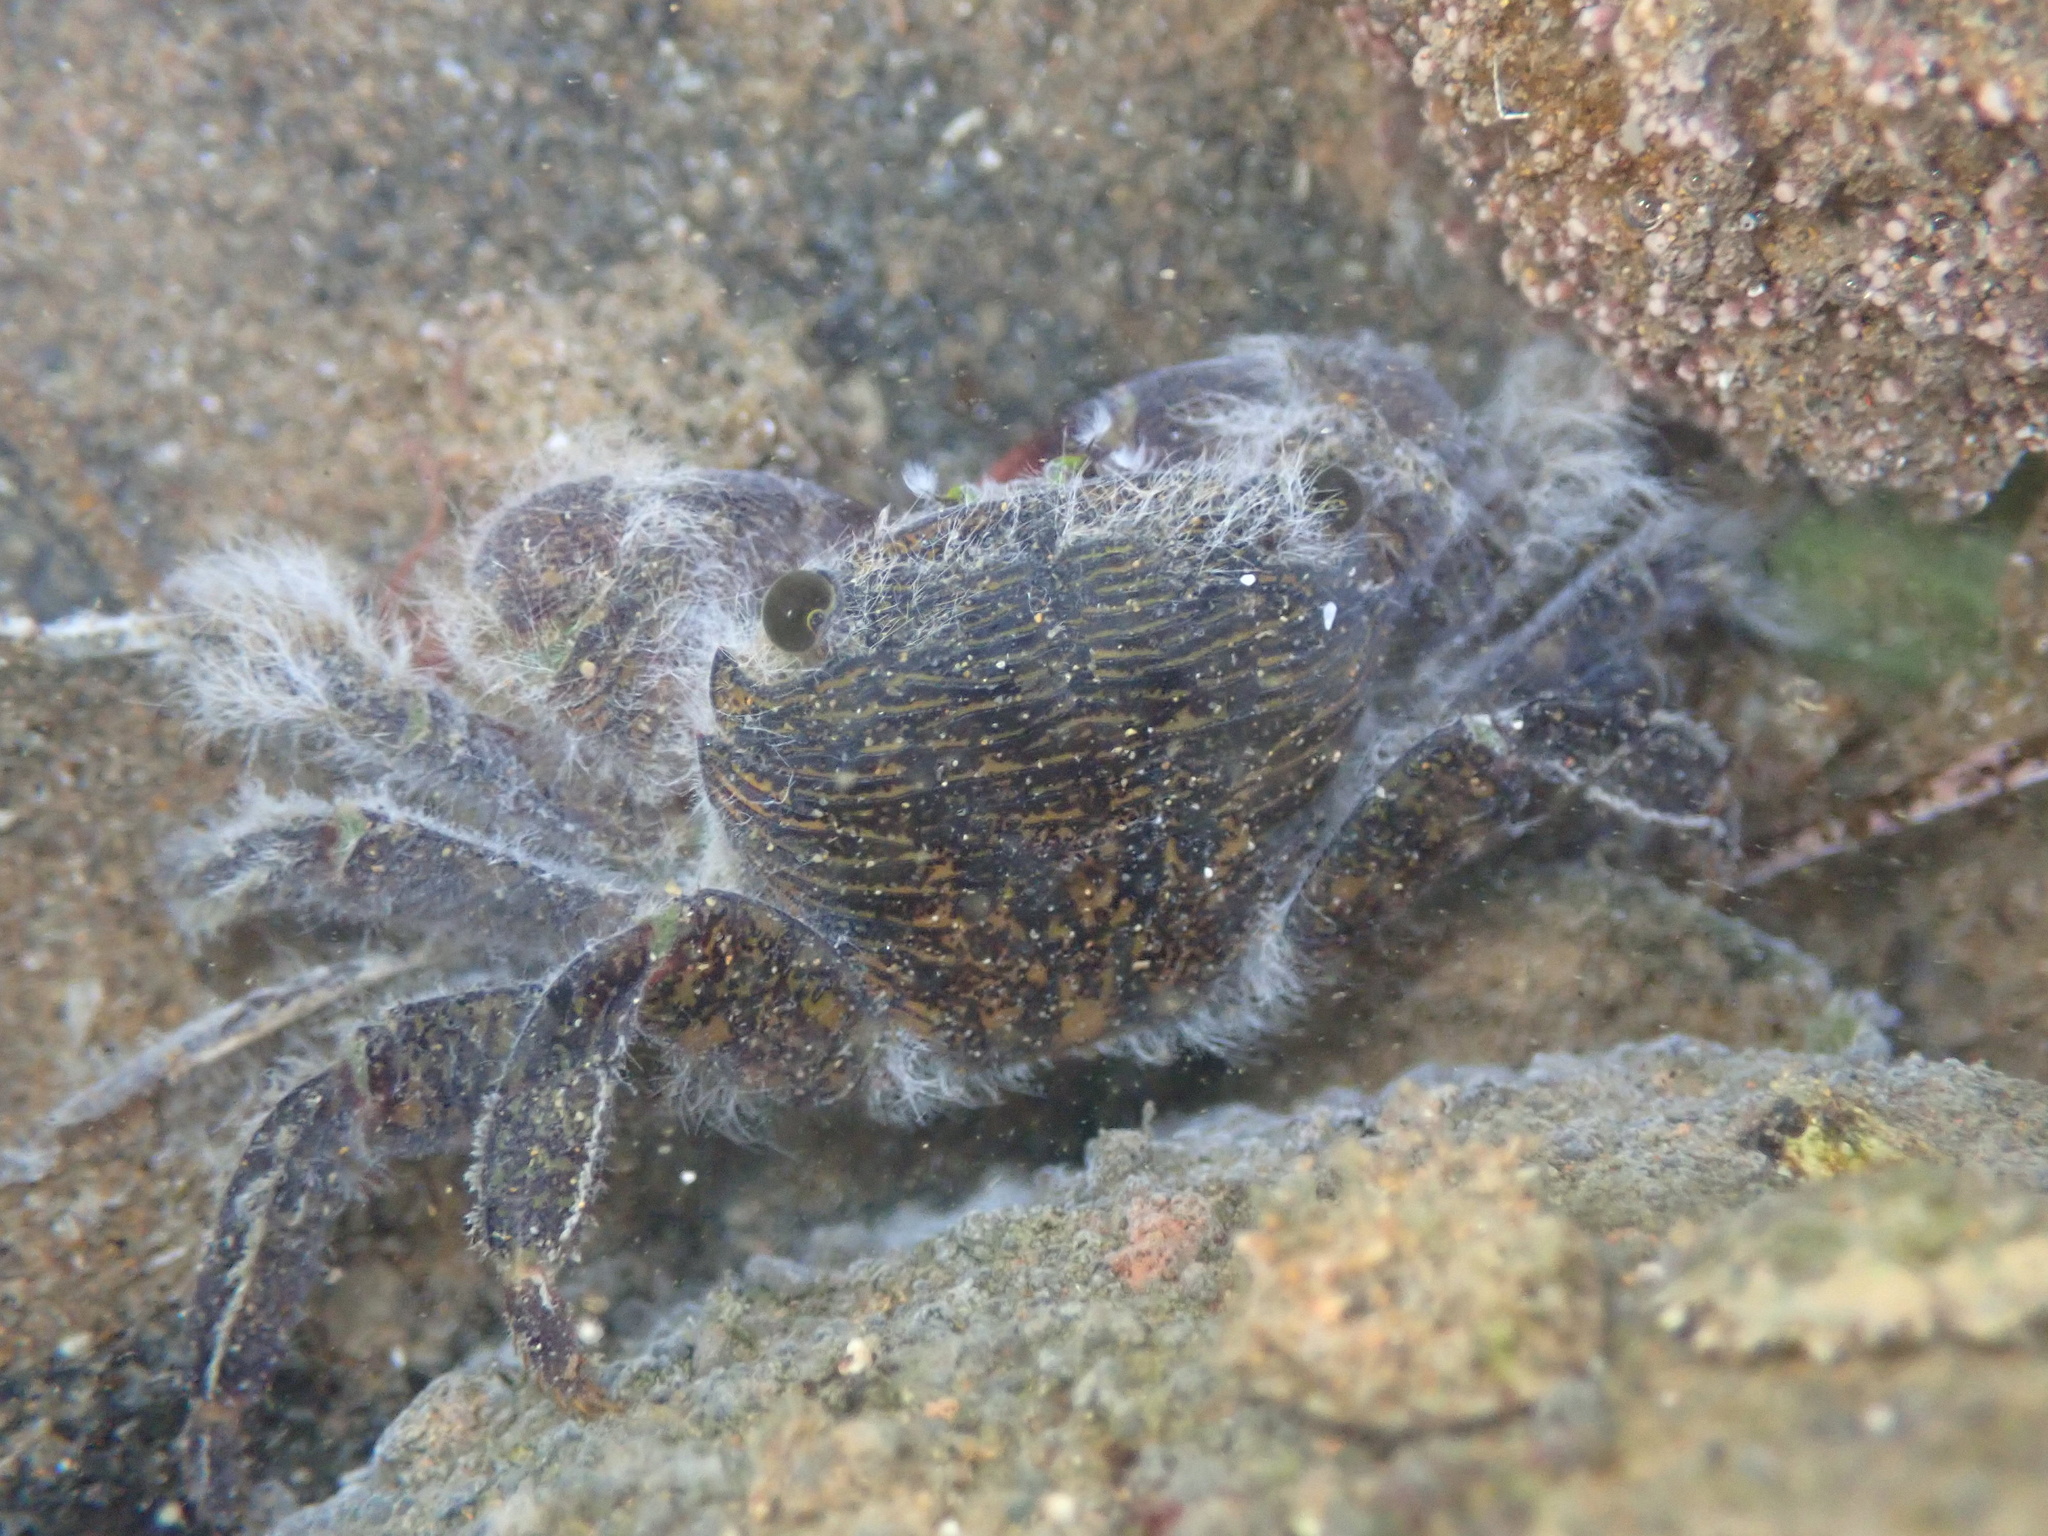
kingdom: Animalia
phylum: Arthropoda
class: Malacostraca
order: Decapoda
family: Grapsidae
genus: Pachygrapsus
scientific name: Pachygrapsus crassipes
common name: Striped shore crab
